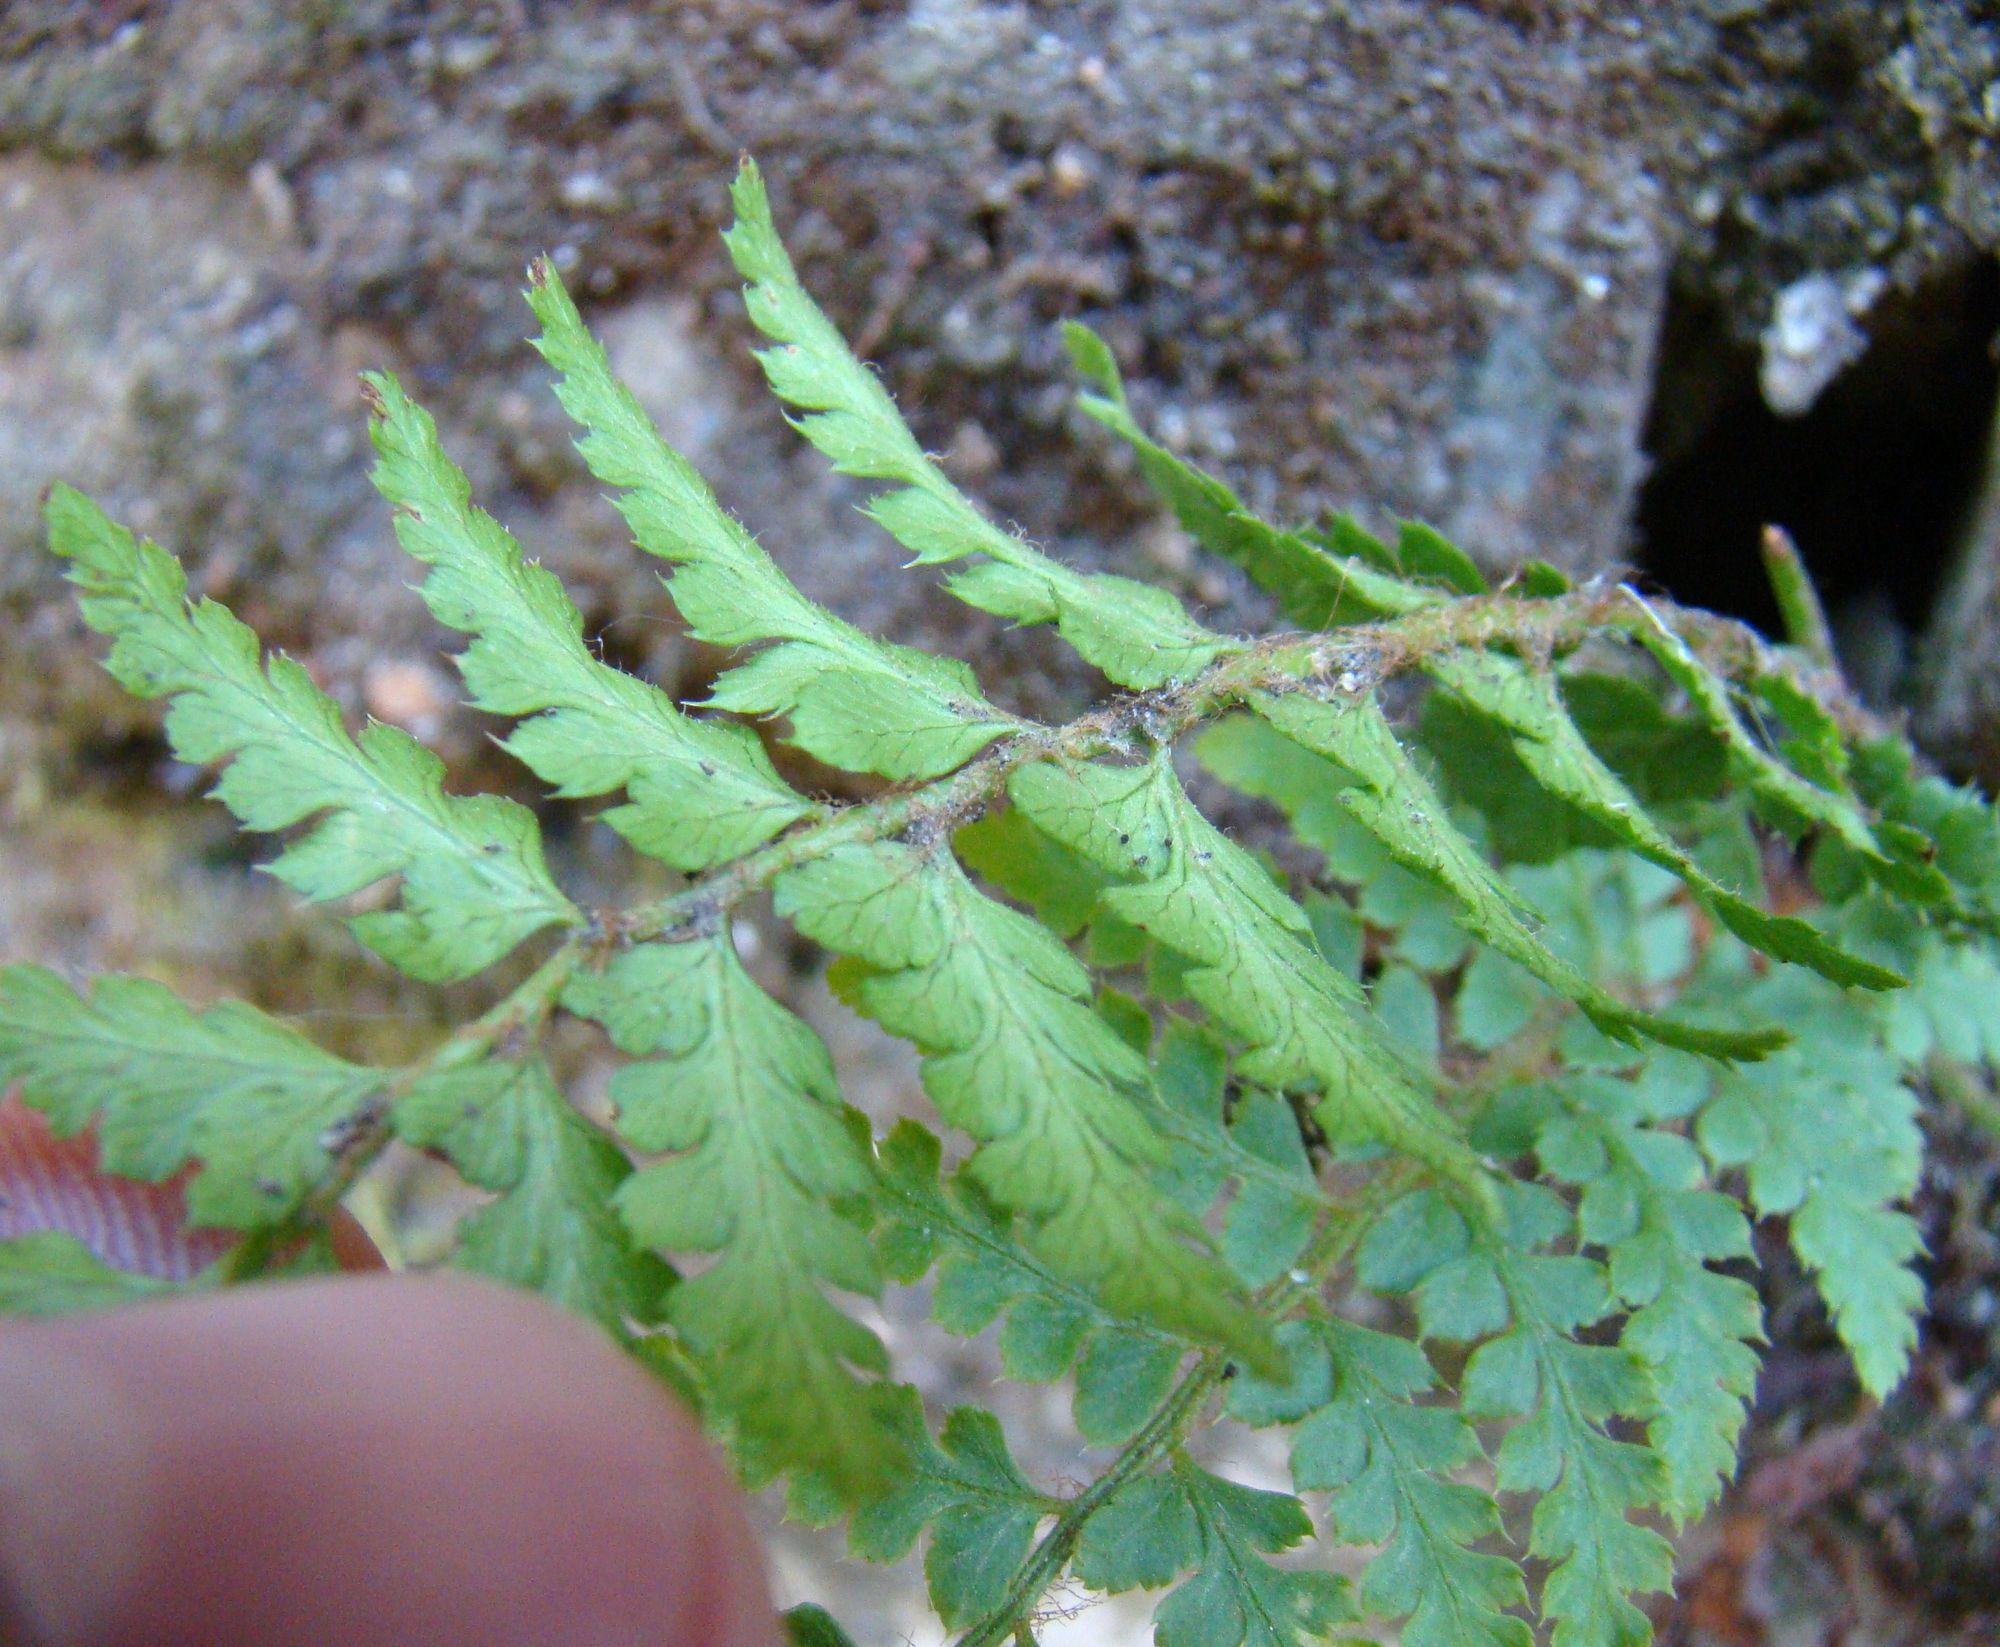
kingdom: Plantae
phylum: Tracheophyta
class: Polypodiopsida
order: Polypodiales
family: Dryopteridaceae
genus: Polystichum
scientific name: Polystichum braunii
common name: Braun's holly fern
